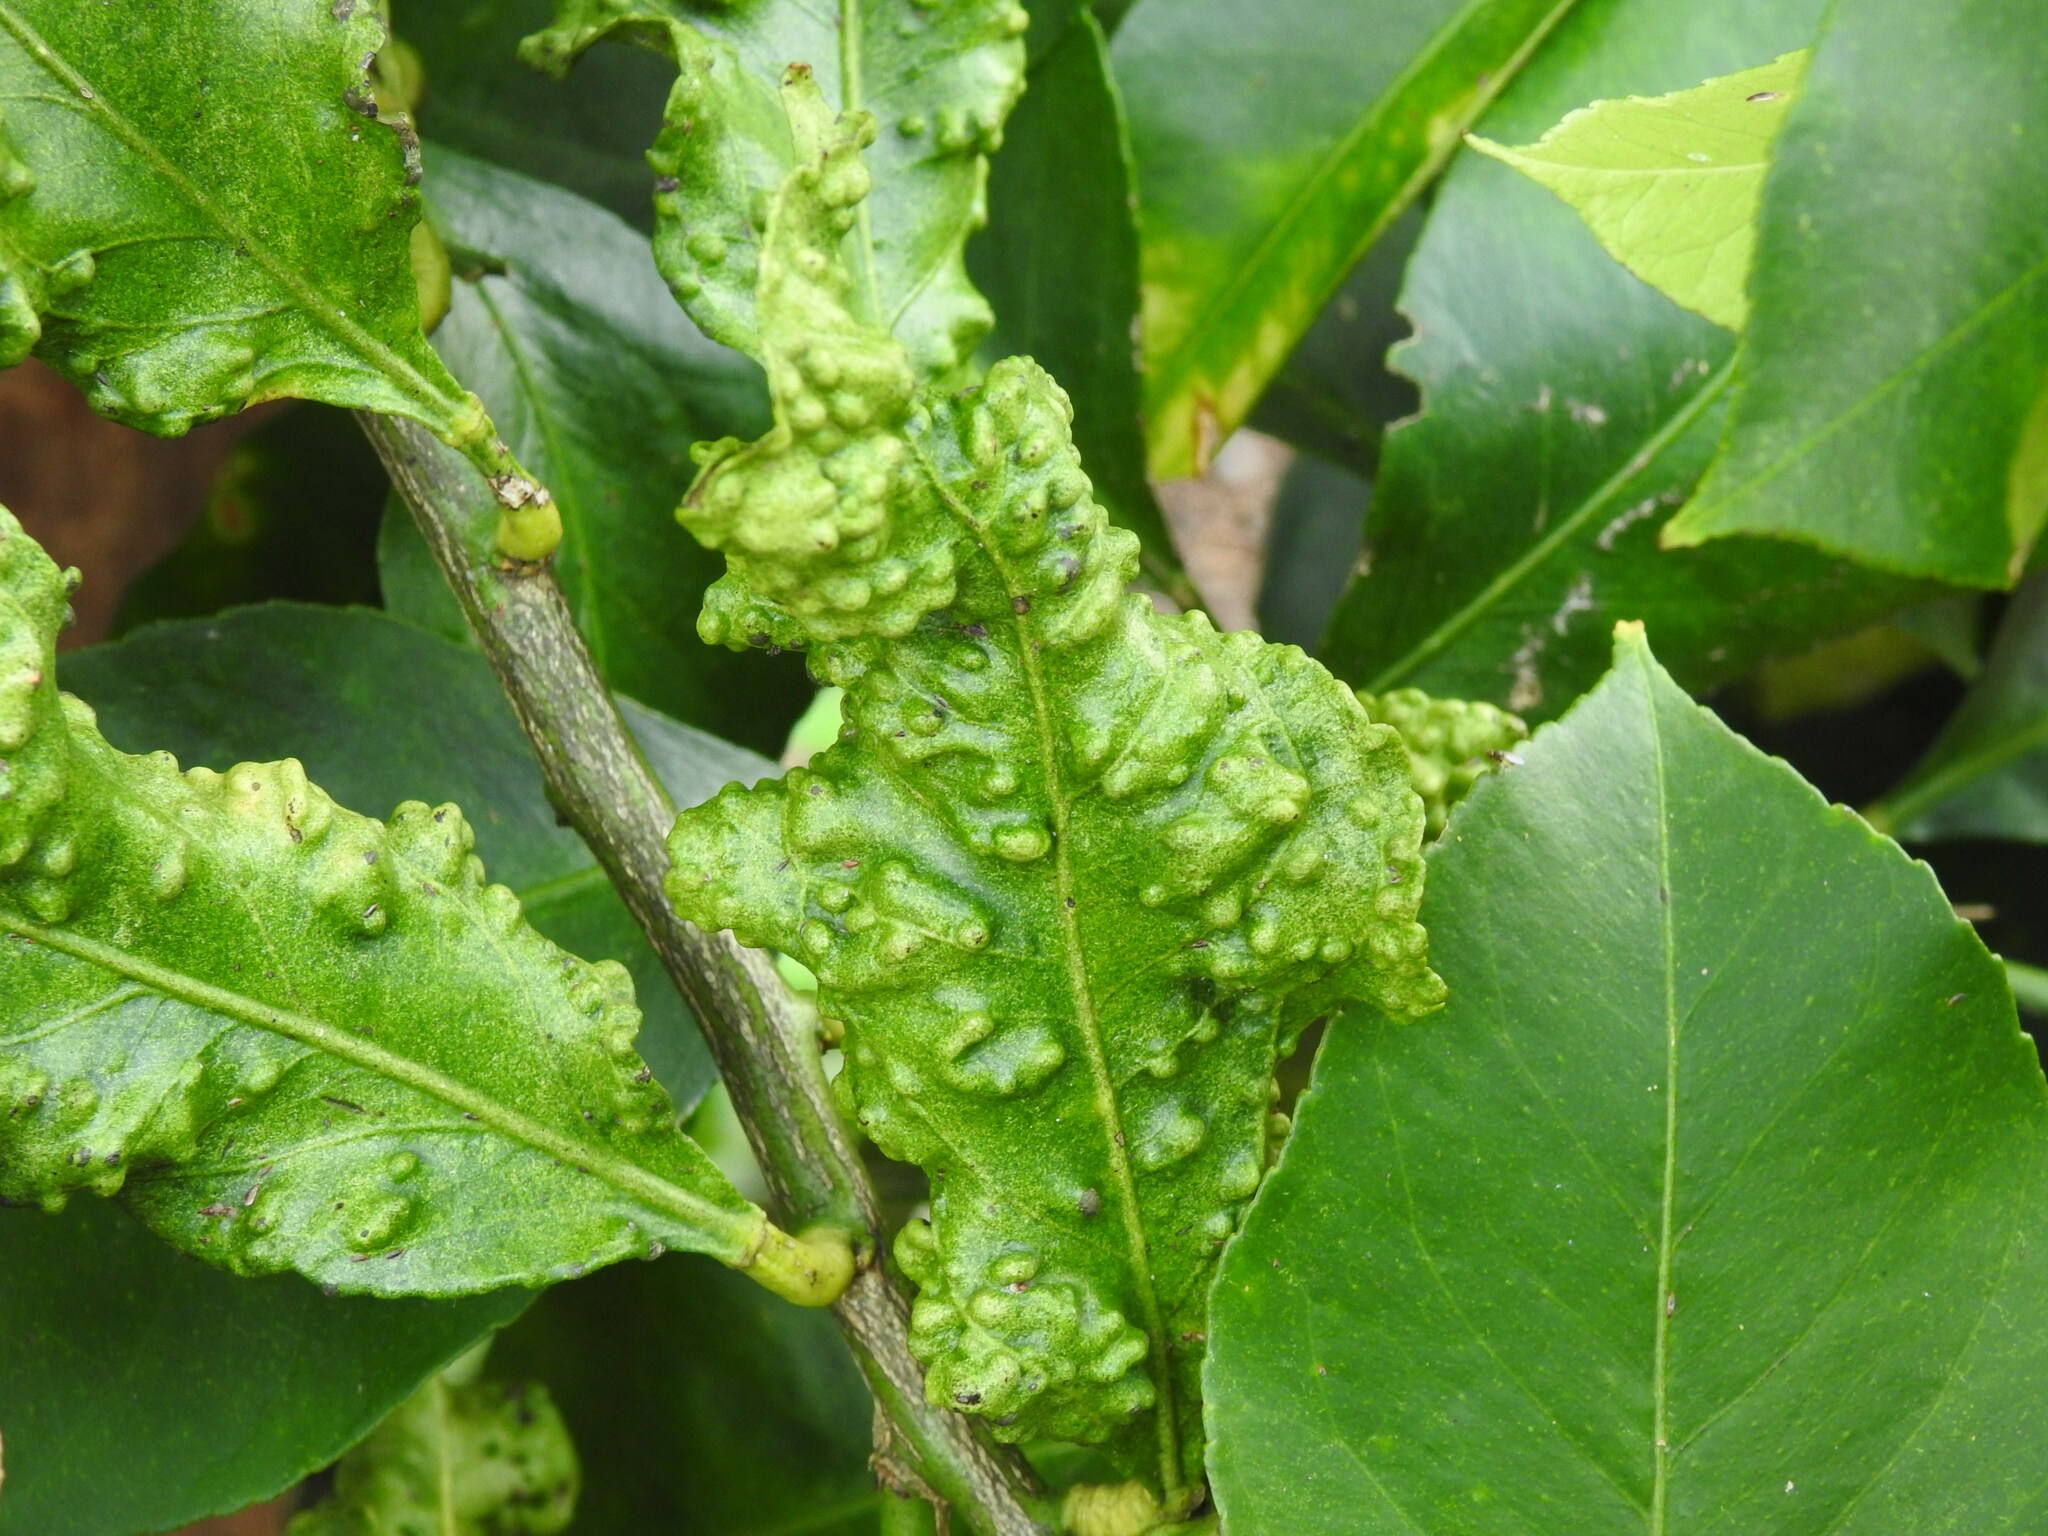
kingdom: Animalia
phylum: Arthropoda
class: Insecta
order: Hemiptera
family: Triozidae
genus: Trioza
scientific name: Trioza erytreae
